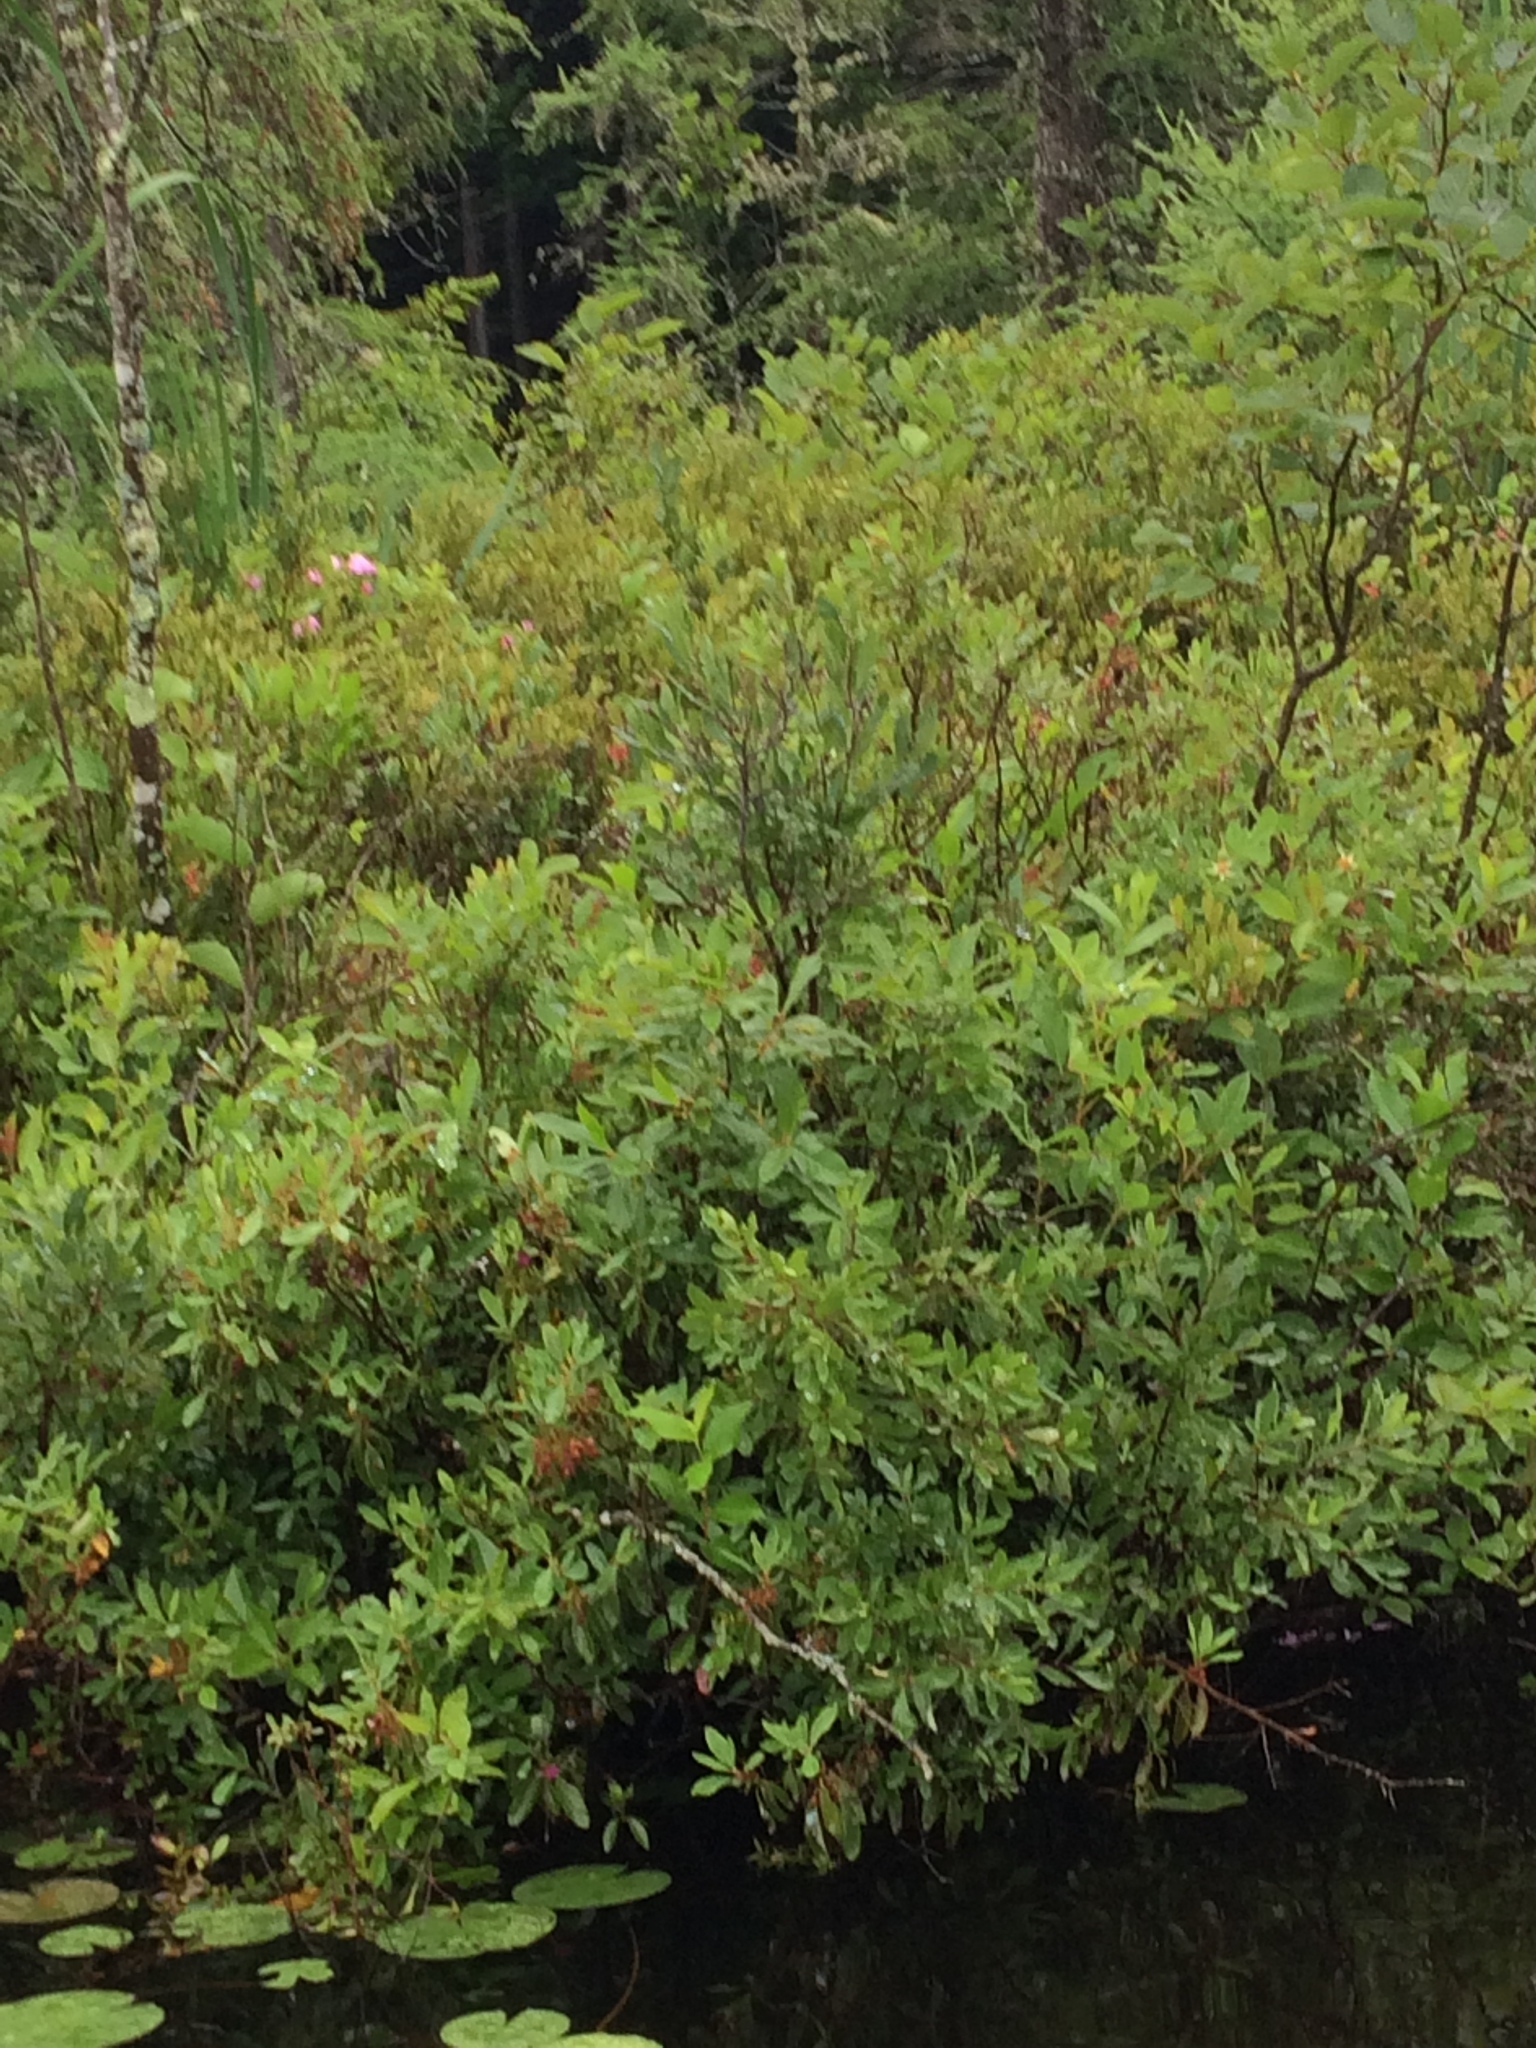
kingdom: Plantae
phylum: Tracheophyta
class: Magnoliopsida
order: Ericales
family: Ericaceae
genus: Chamaedaphne
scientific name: Chamaedaphne calyculata
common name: Leatherleaf
